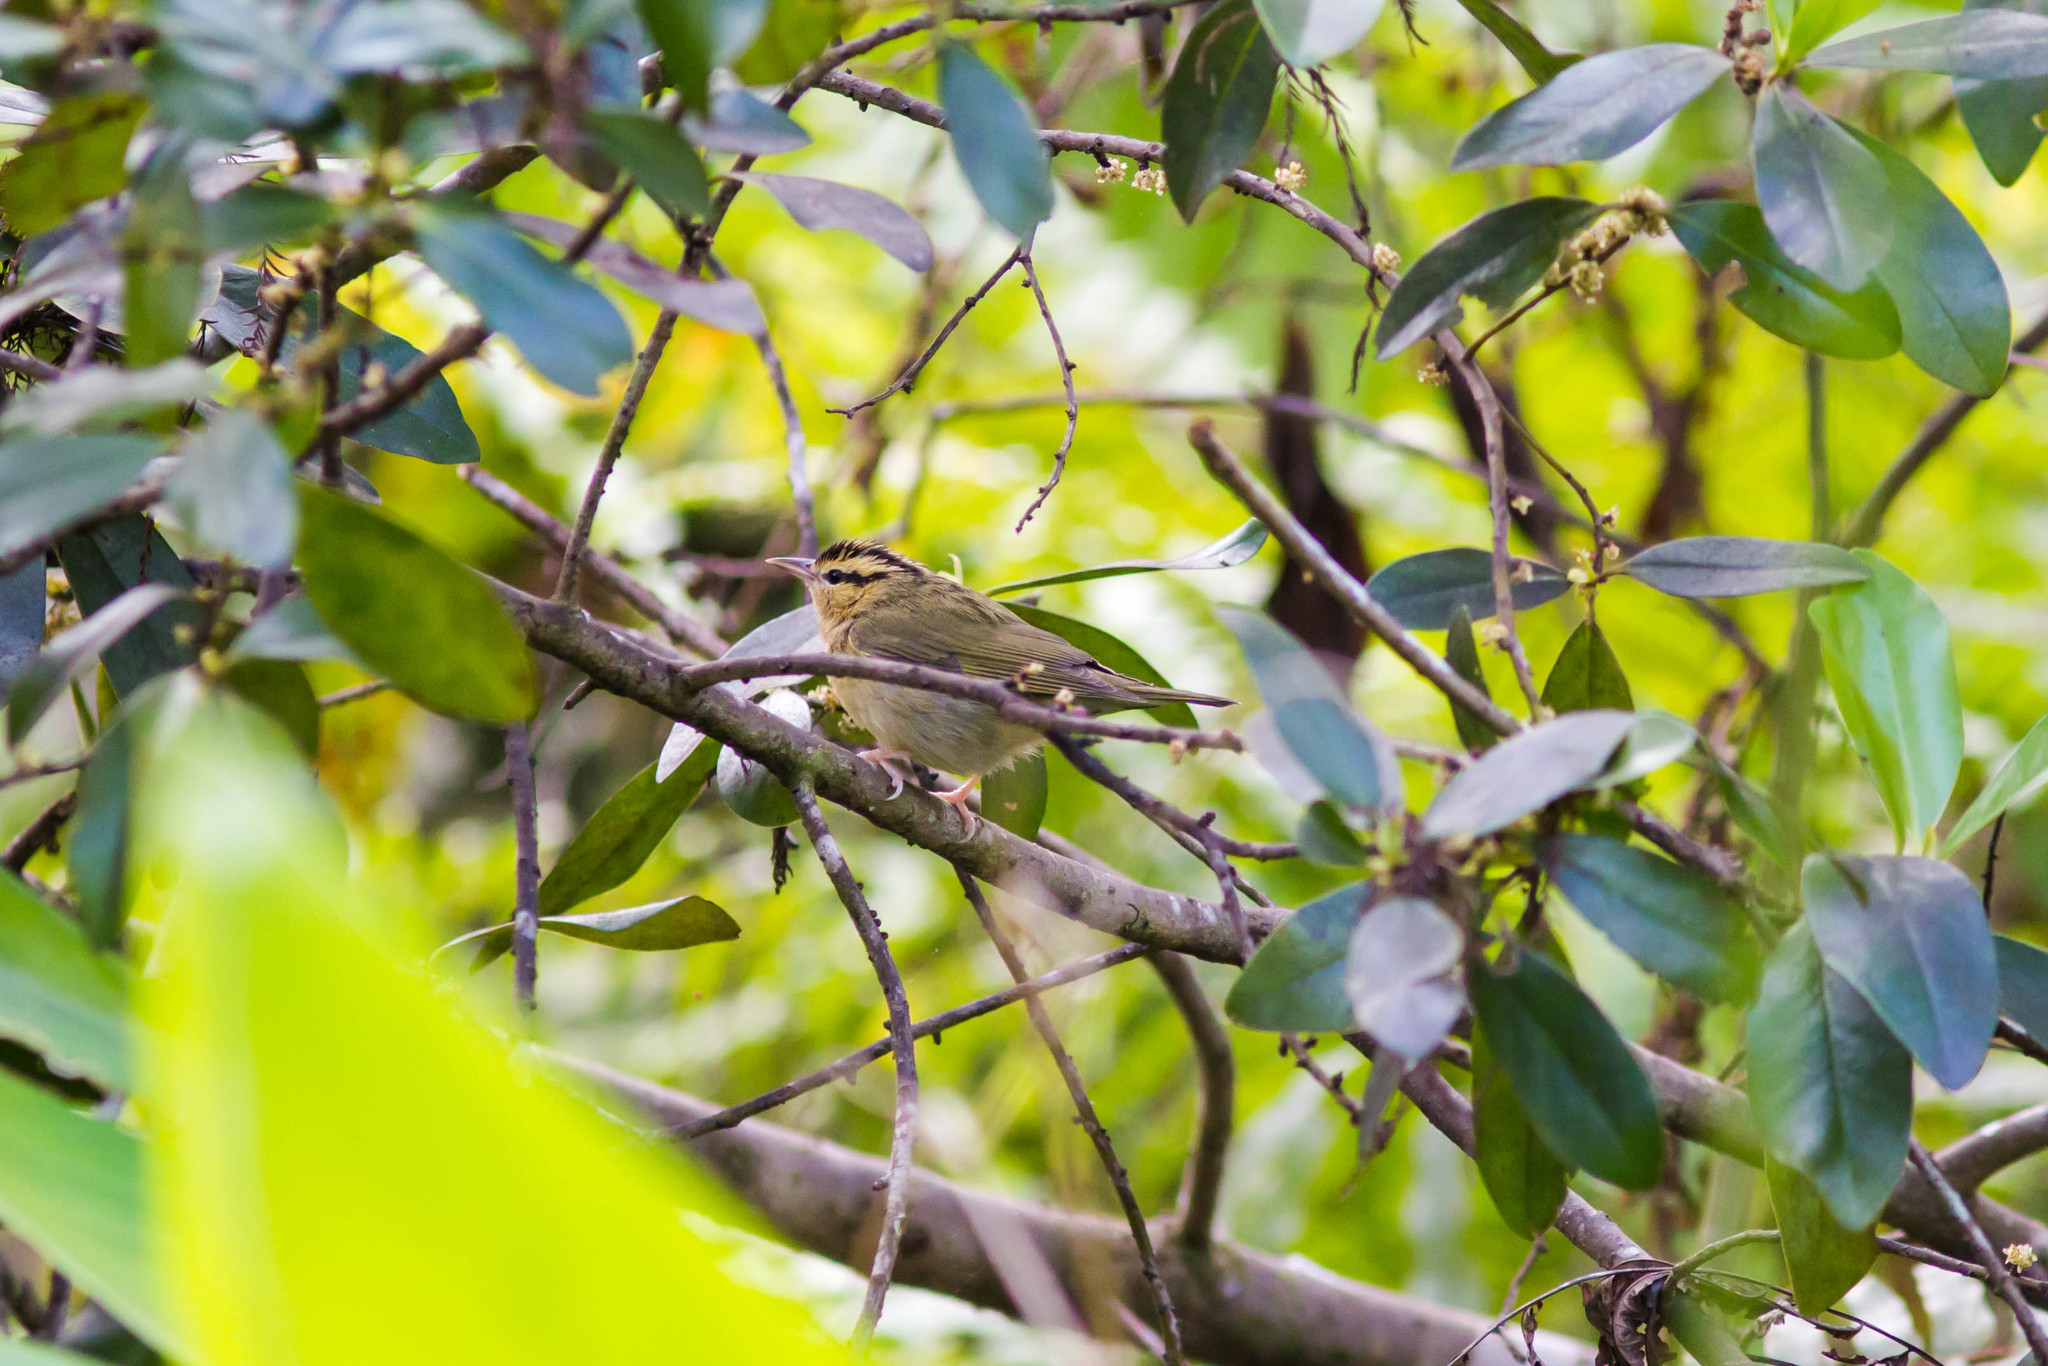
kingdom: Animalia
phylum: Chordata
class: Aves
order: Passeriformes
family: Parulidae
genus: Helmitheros
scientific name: Helmitheros vermivorum
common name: Worm-eating warbler
